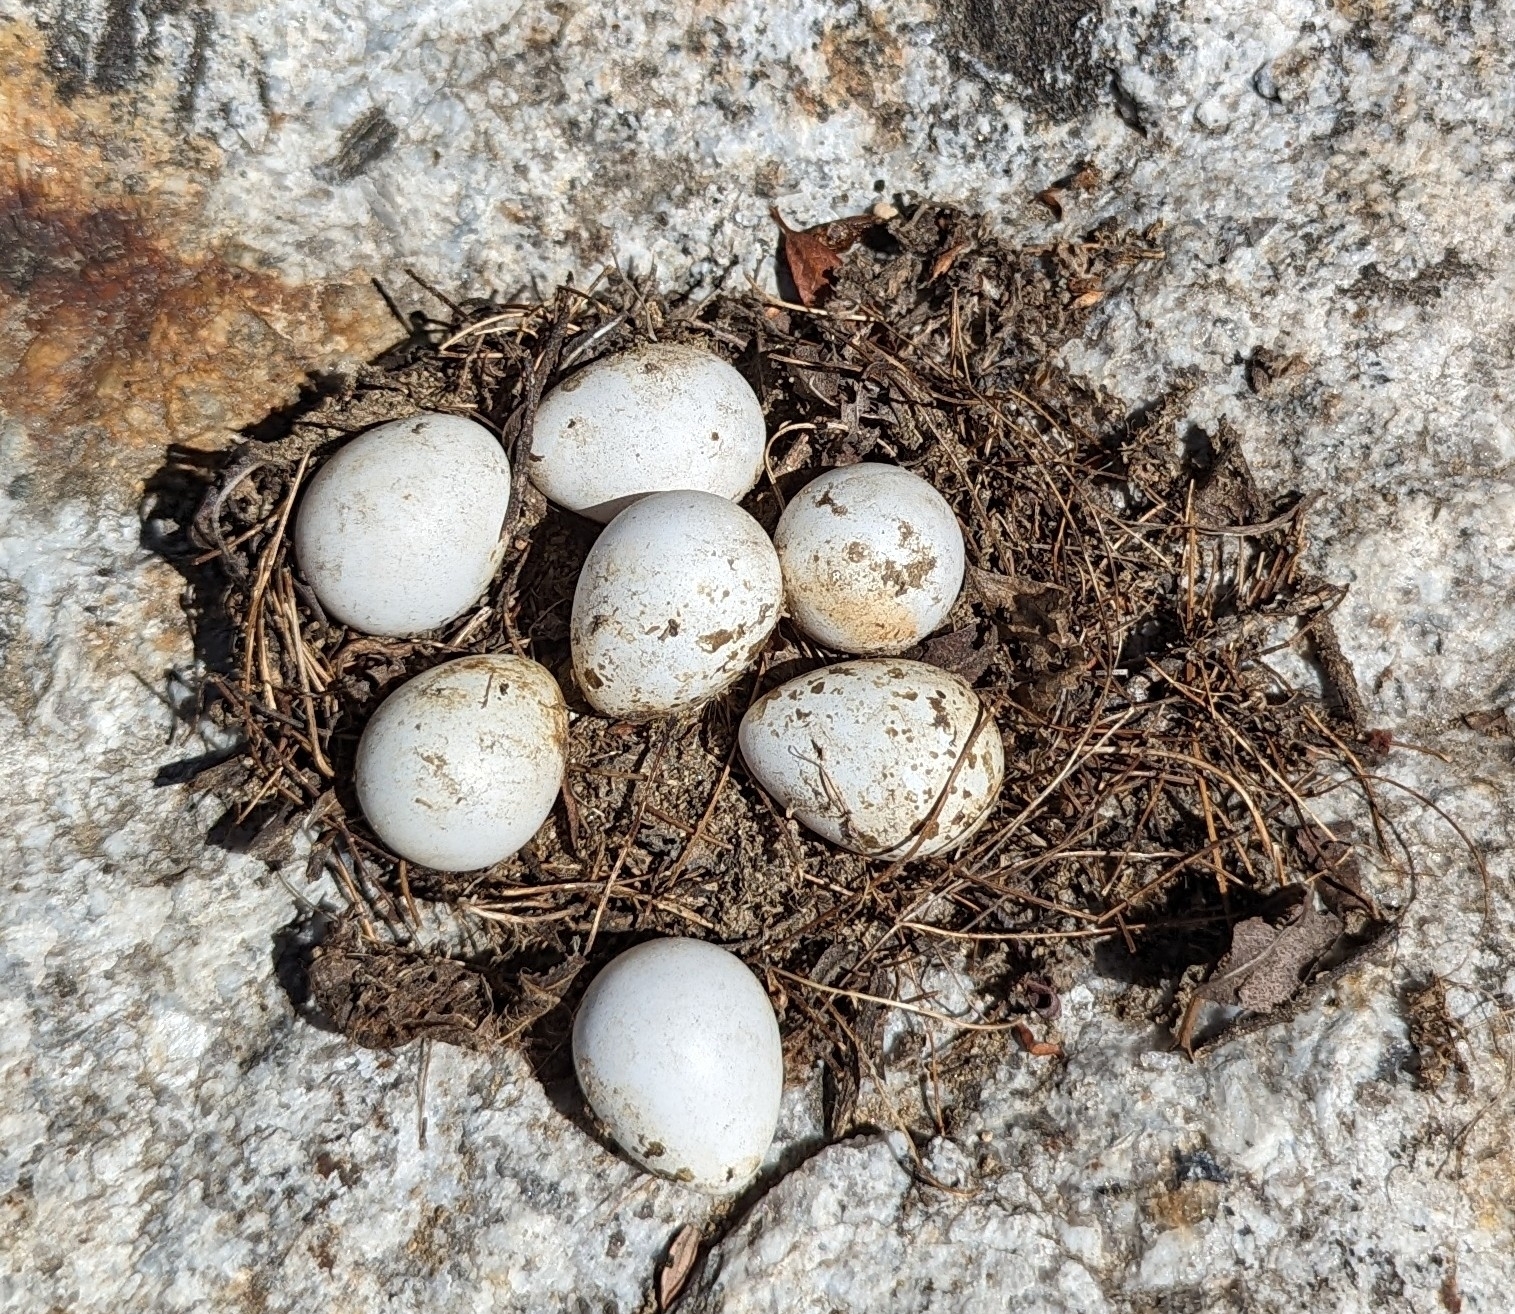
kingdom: Animalia
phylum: Chordata
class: Aves
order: Galliformes
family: Odontophoridae
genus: Callipepla
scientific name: Callipepla californica
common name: California quail
